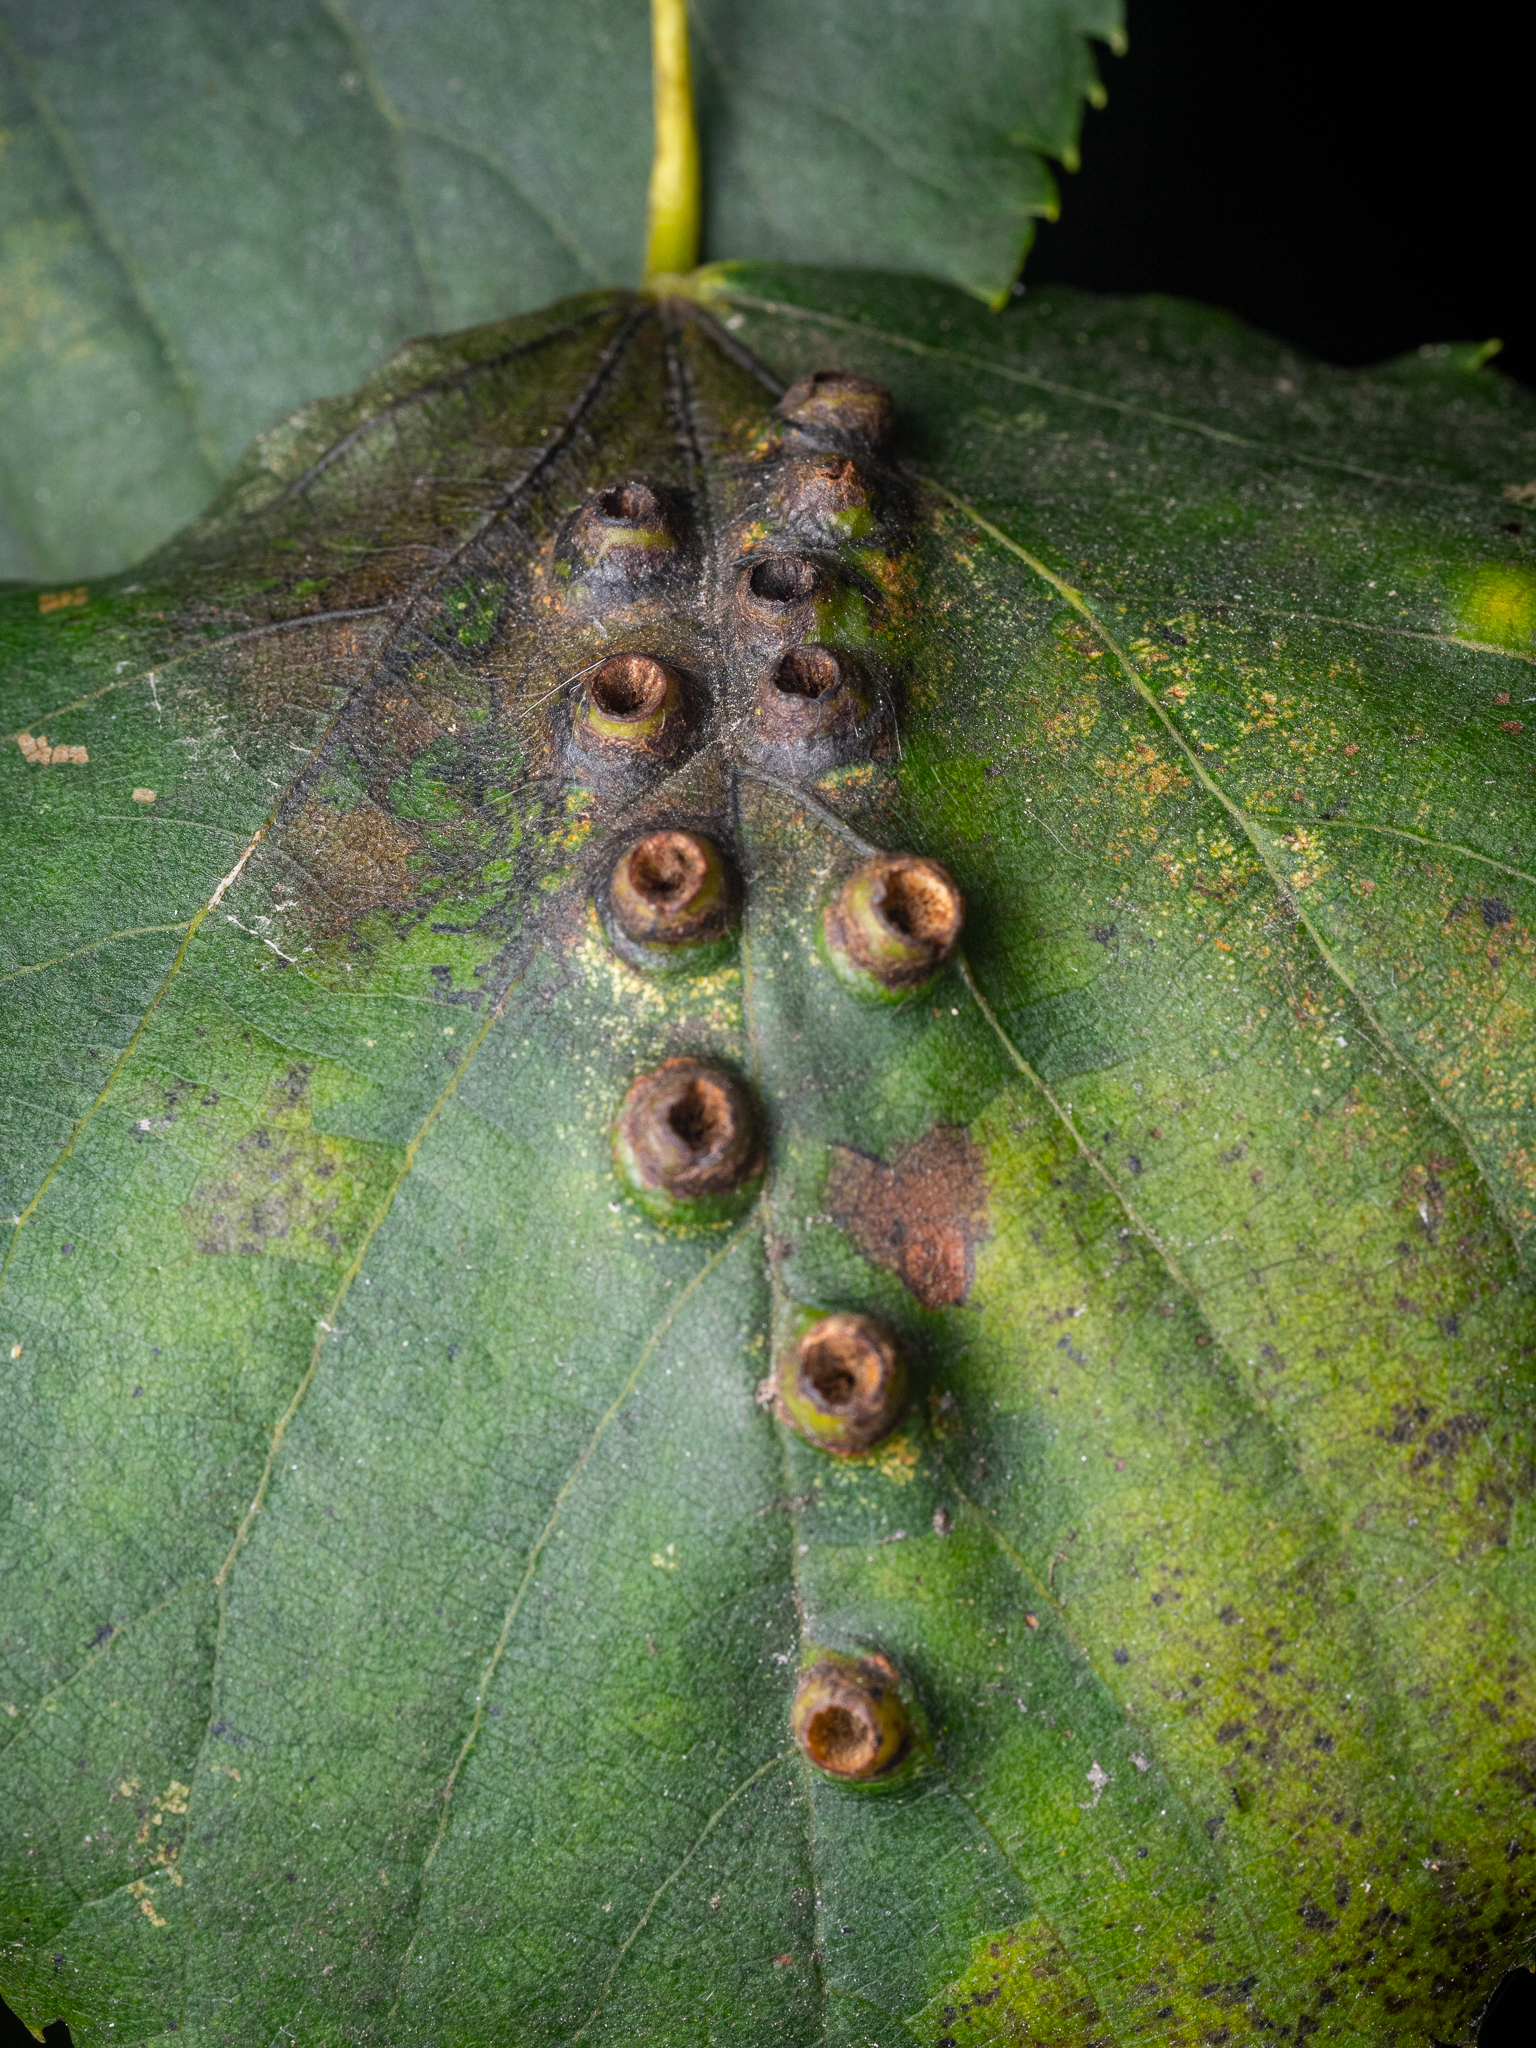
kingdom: Animalia
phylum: Arthropoda
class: Insecta
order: Diptera
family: Cecidomyiidae
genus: Didymomyia
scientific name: Didymomyia tiliacea
